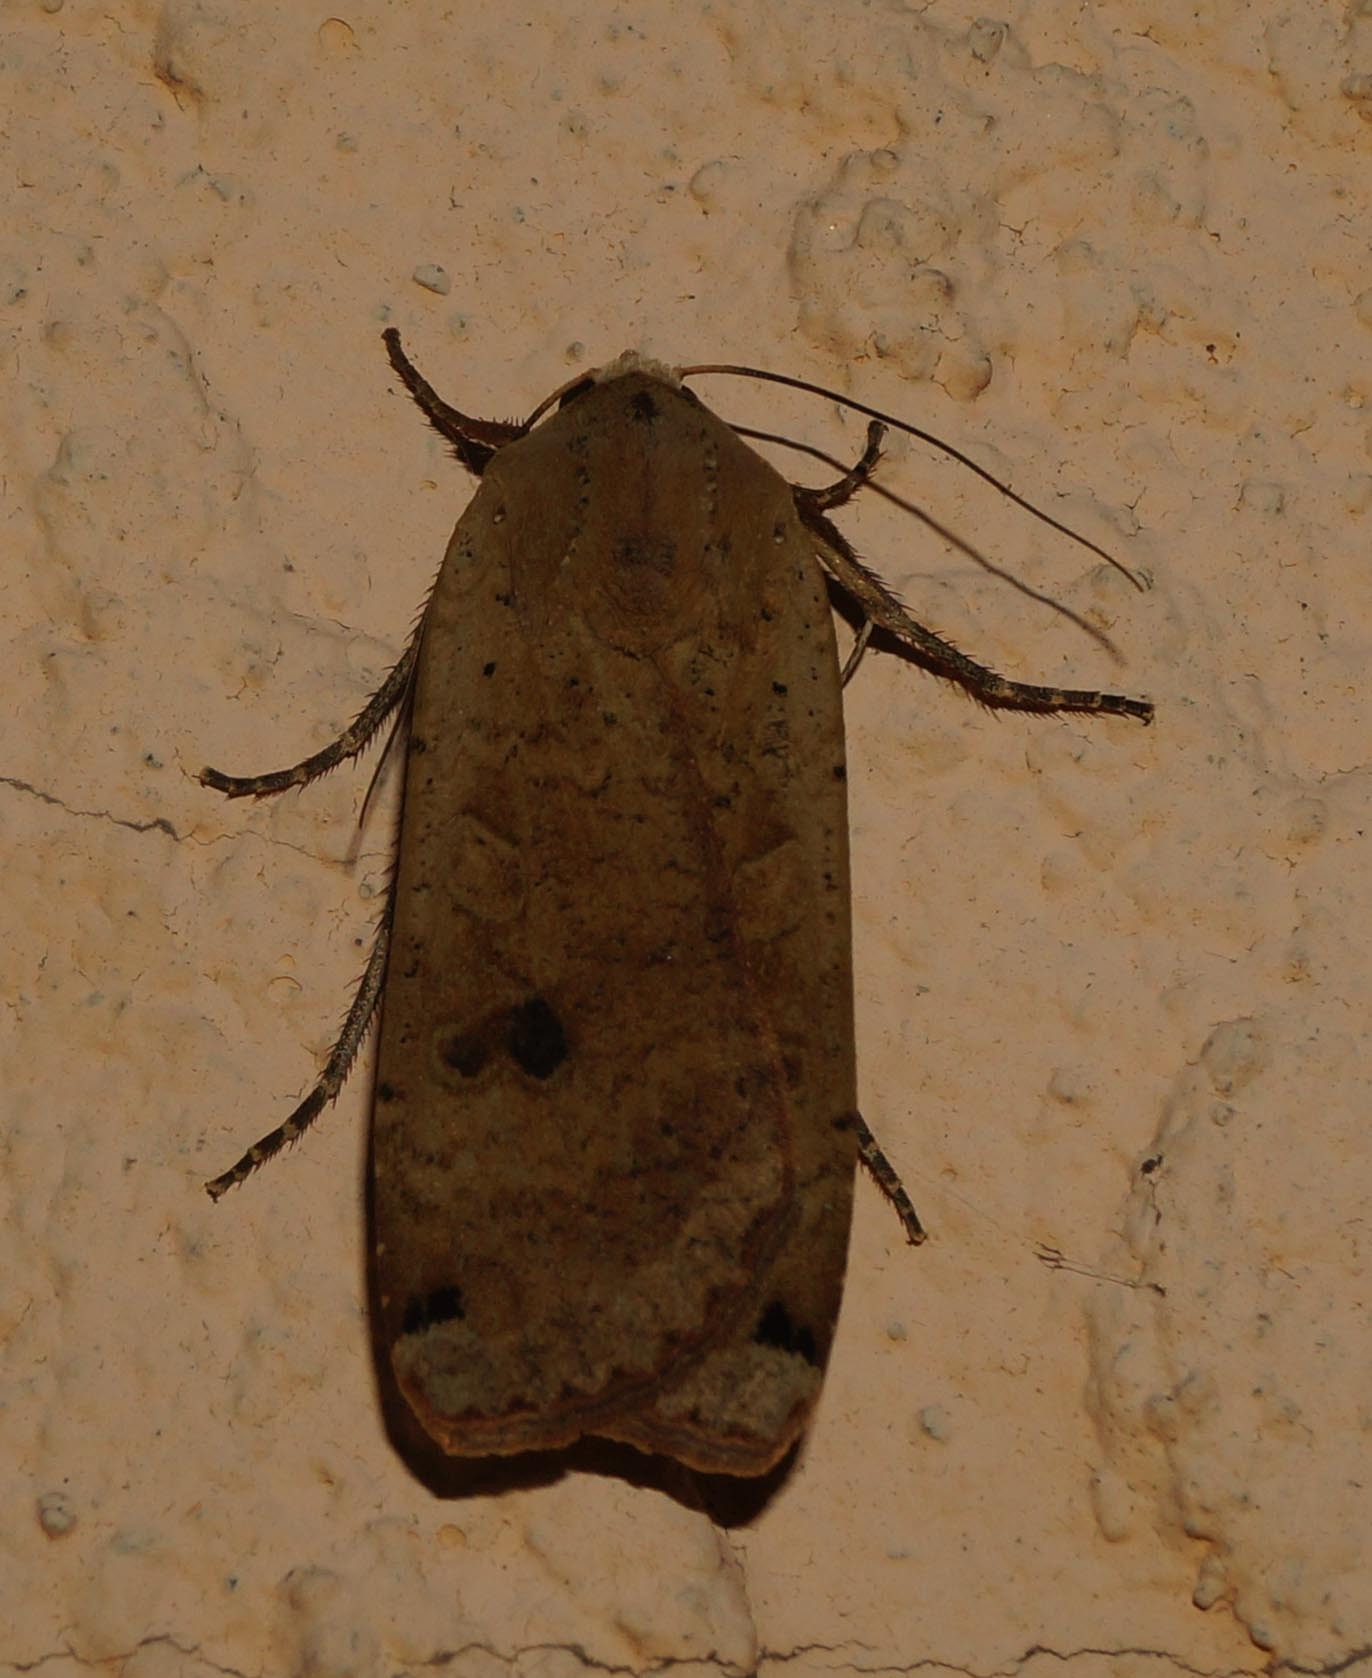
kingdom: Animalia
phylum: Arthropoda
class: Insecta
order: Lepidoptera
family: Noctuidae
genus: Noctua
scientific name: Noctua pronuba
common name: Large yellow underwing
